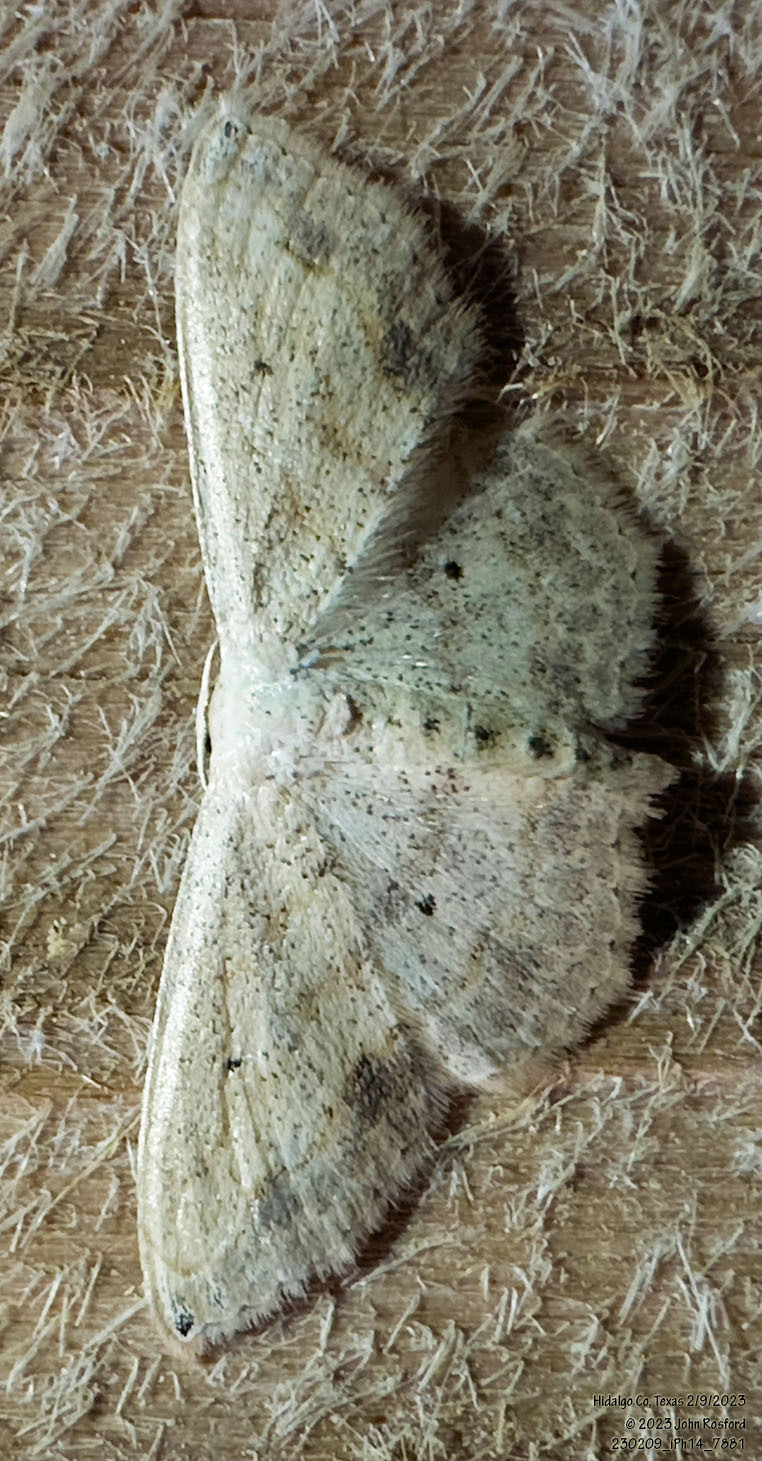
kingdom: Animalia
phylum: Arthropoda
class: Insecta
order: Lepidoptera
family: Geometridae
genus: Scopula
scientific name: Scopula umbilicata
